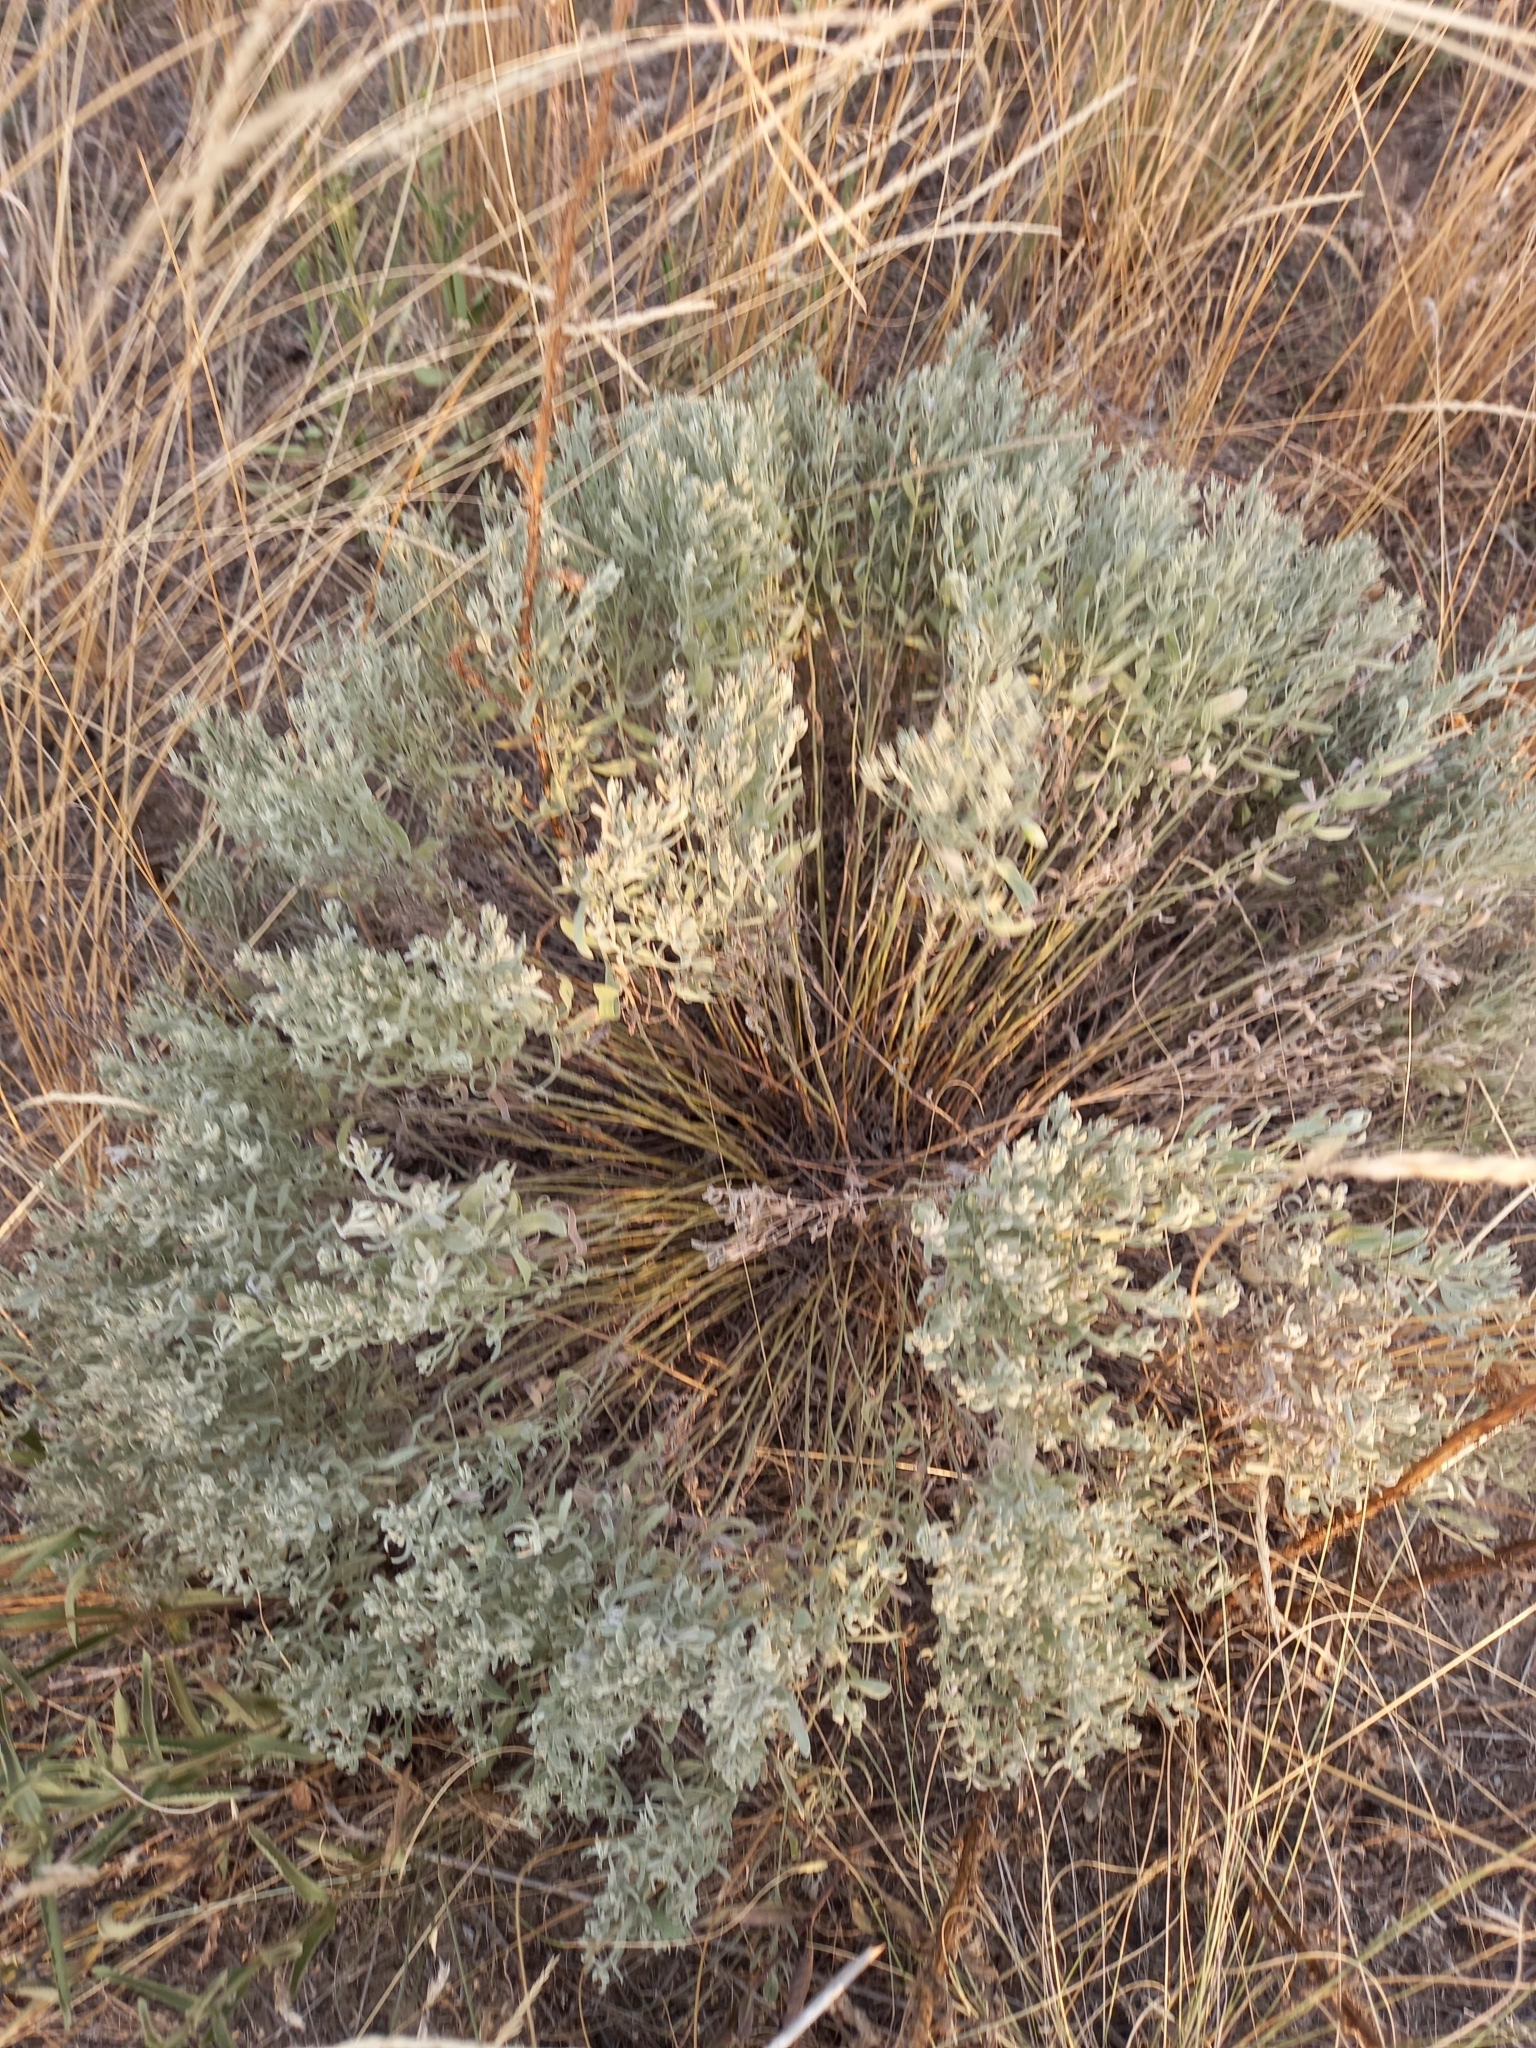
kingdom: Plantae
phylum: Tracheophyta
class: Magnoliopsida
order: Asterales
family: Asteraceae
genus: Galatella
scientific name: Galatella villosa
